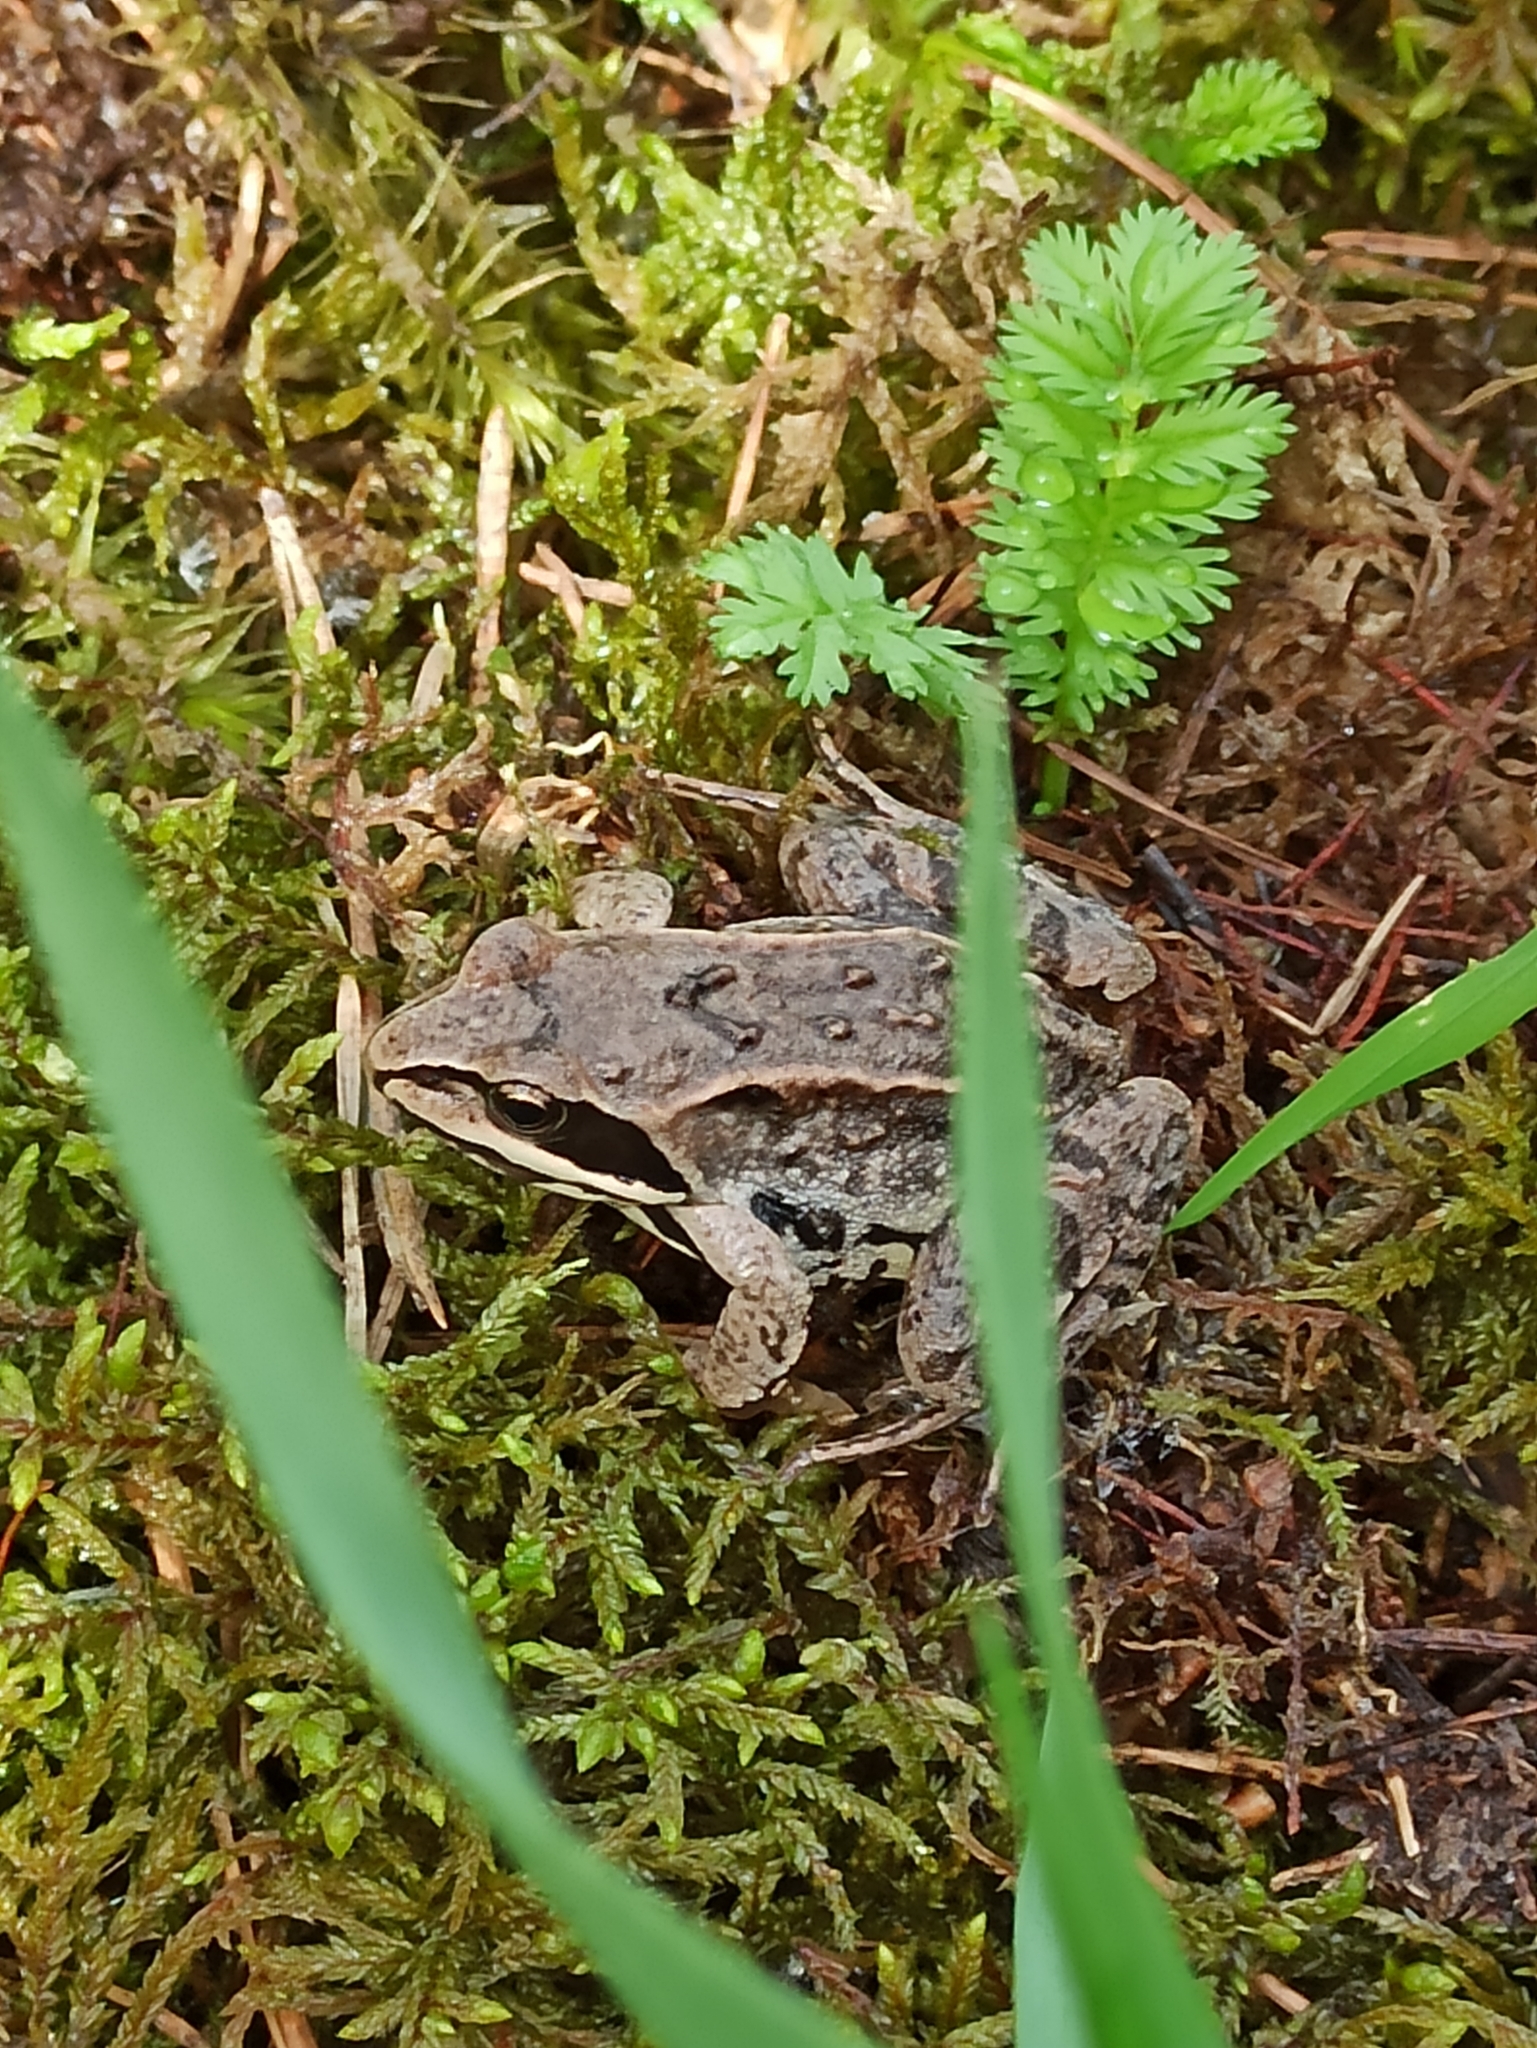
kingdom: Animalia
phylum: Chordata
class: Amphibia
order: Anura
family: Ranidae
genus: Rana
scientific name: Rana arvalis
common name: Moor frog
